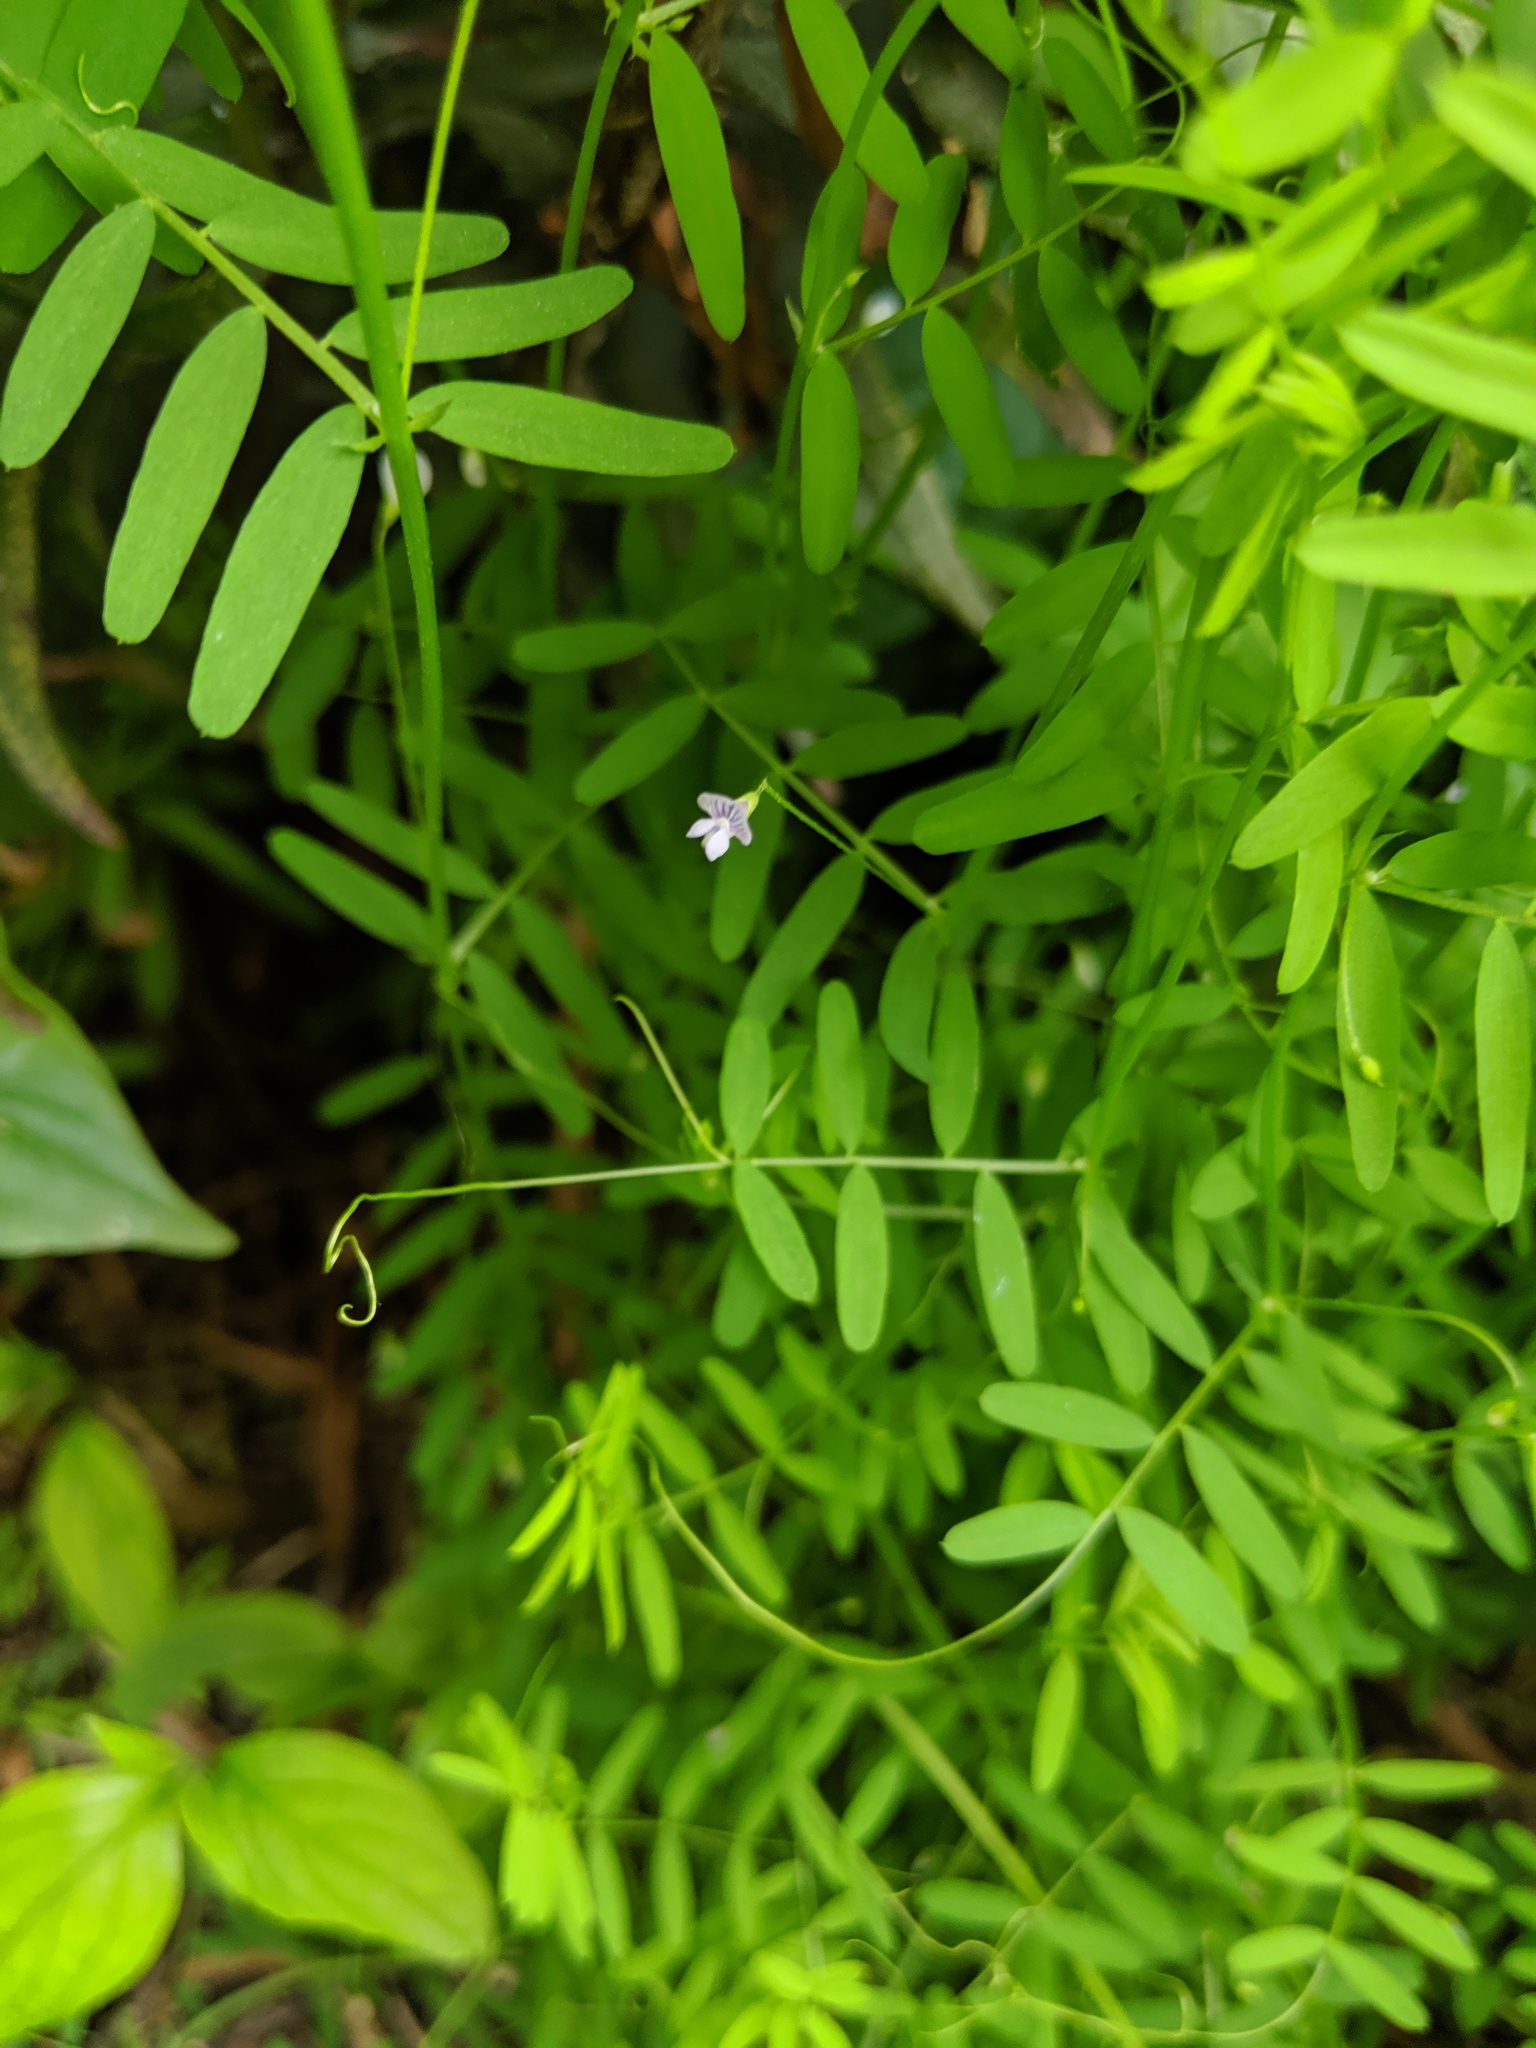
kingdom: Plantae
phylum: Tracheophyta
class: Magnoliopsida
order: Fabales
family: Fabaceae
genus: Vicia
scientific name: Vicia tetrasperma
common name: Smooth tare
